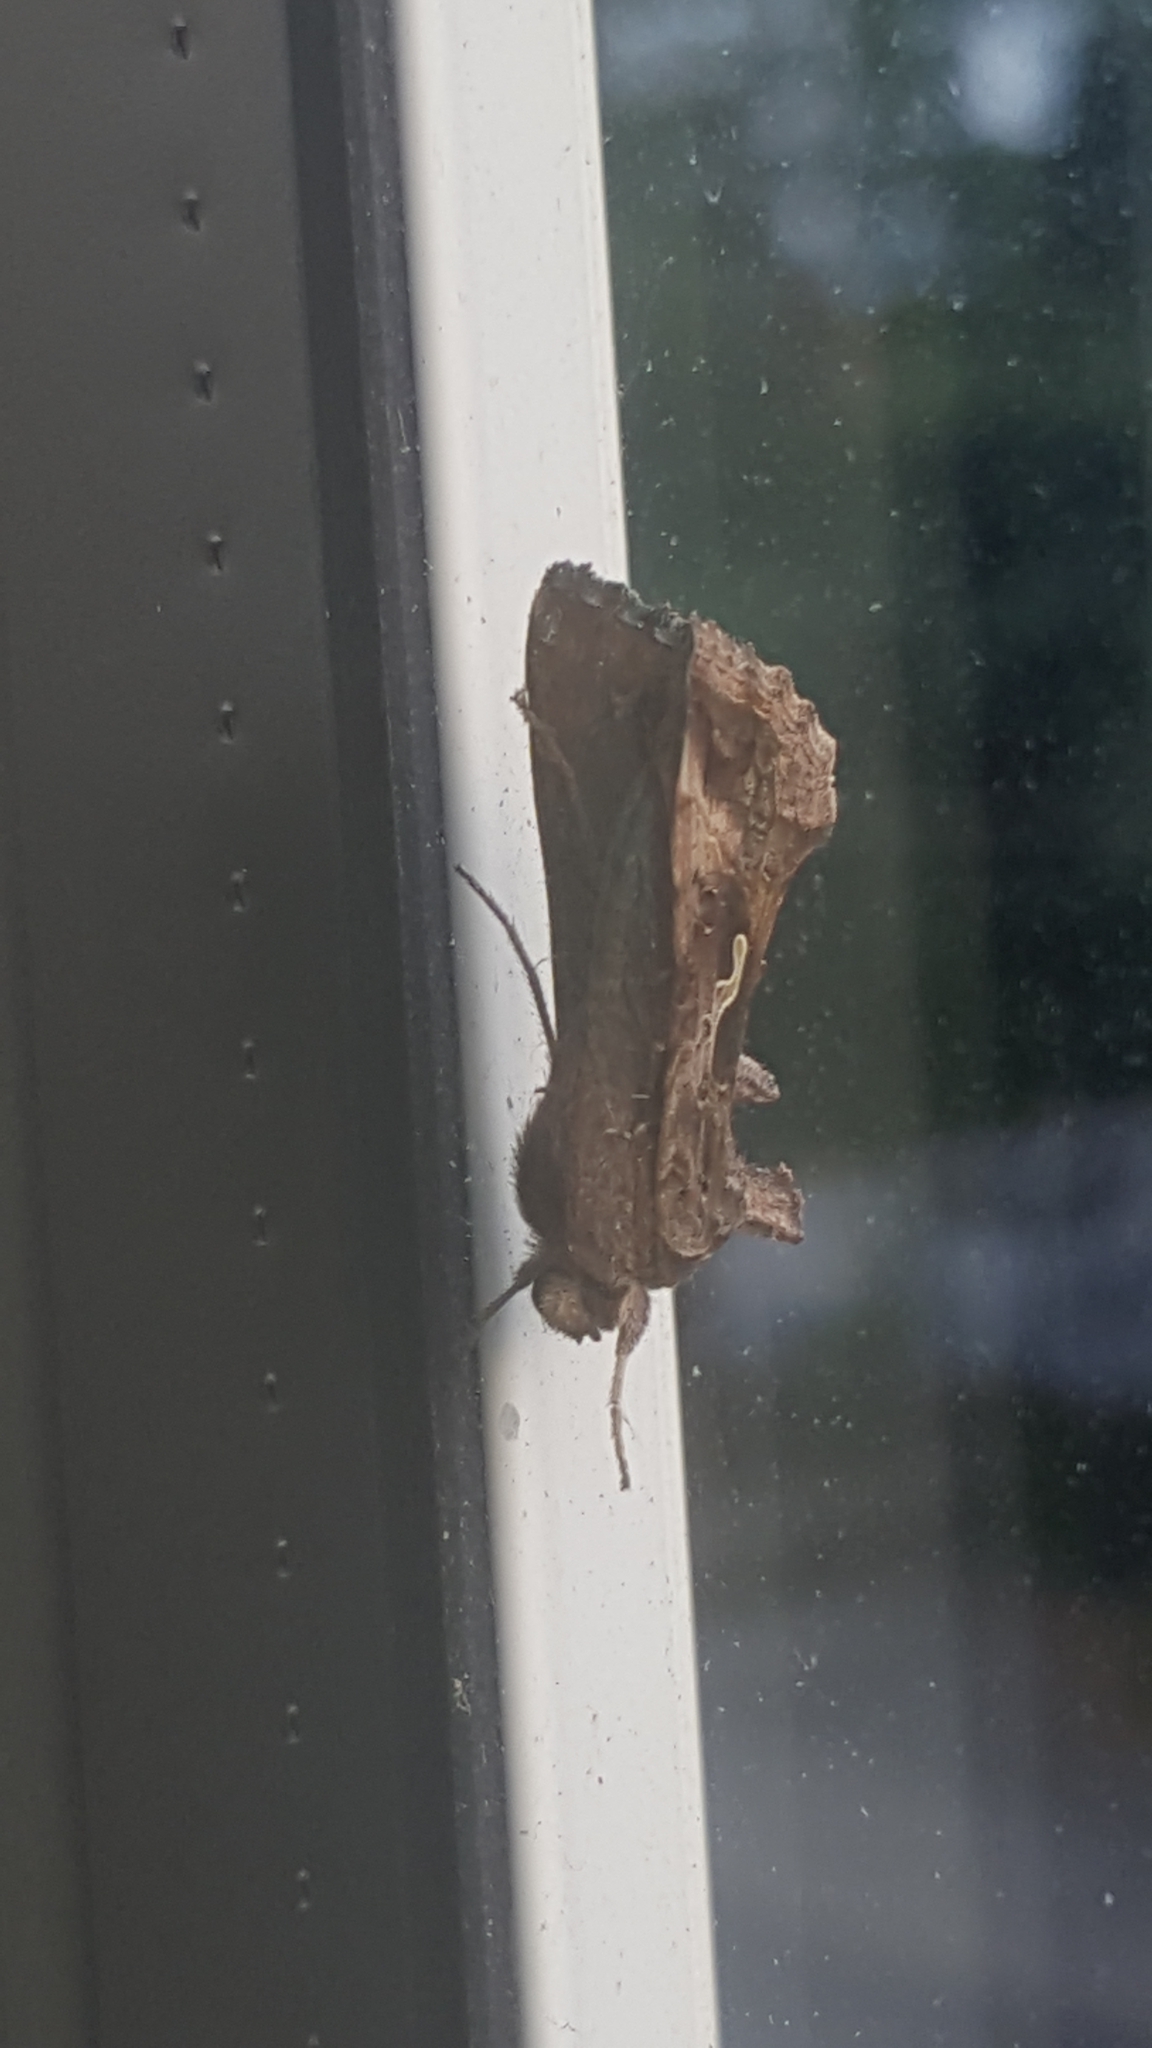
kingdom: Animalia
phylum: Arthropoda
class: Insecta
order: Lepidoptera
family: Noctuidae
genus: Autographa
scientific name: Autographa gamma
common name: Silver y
